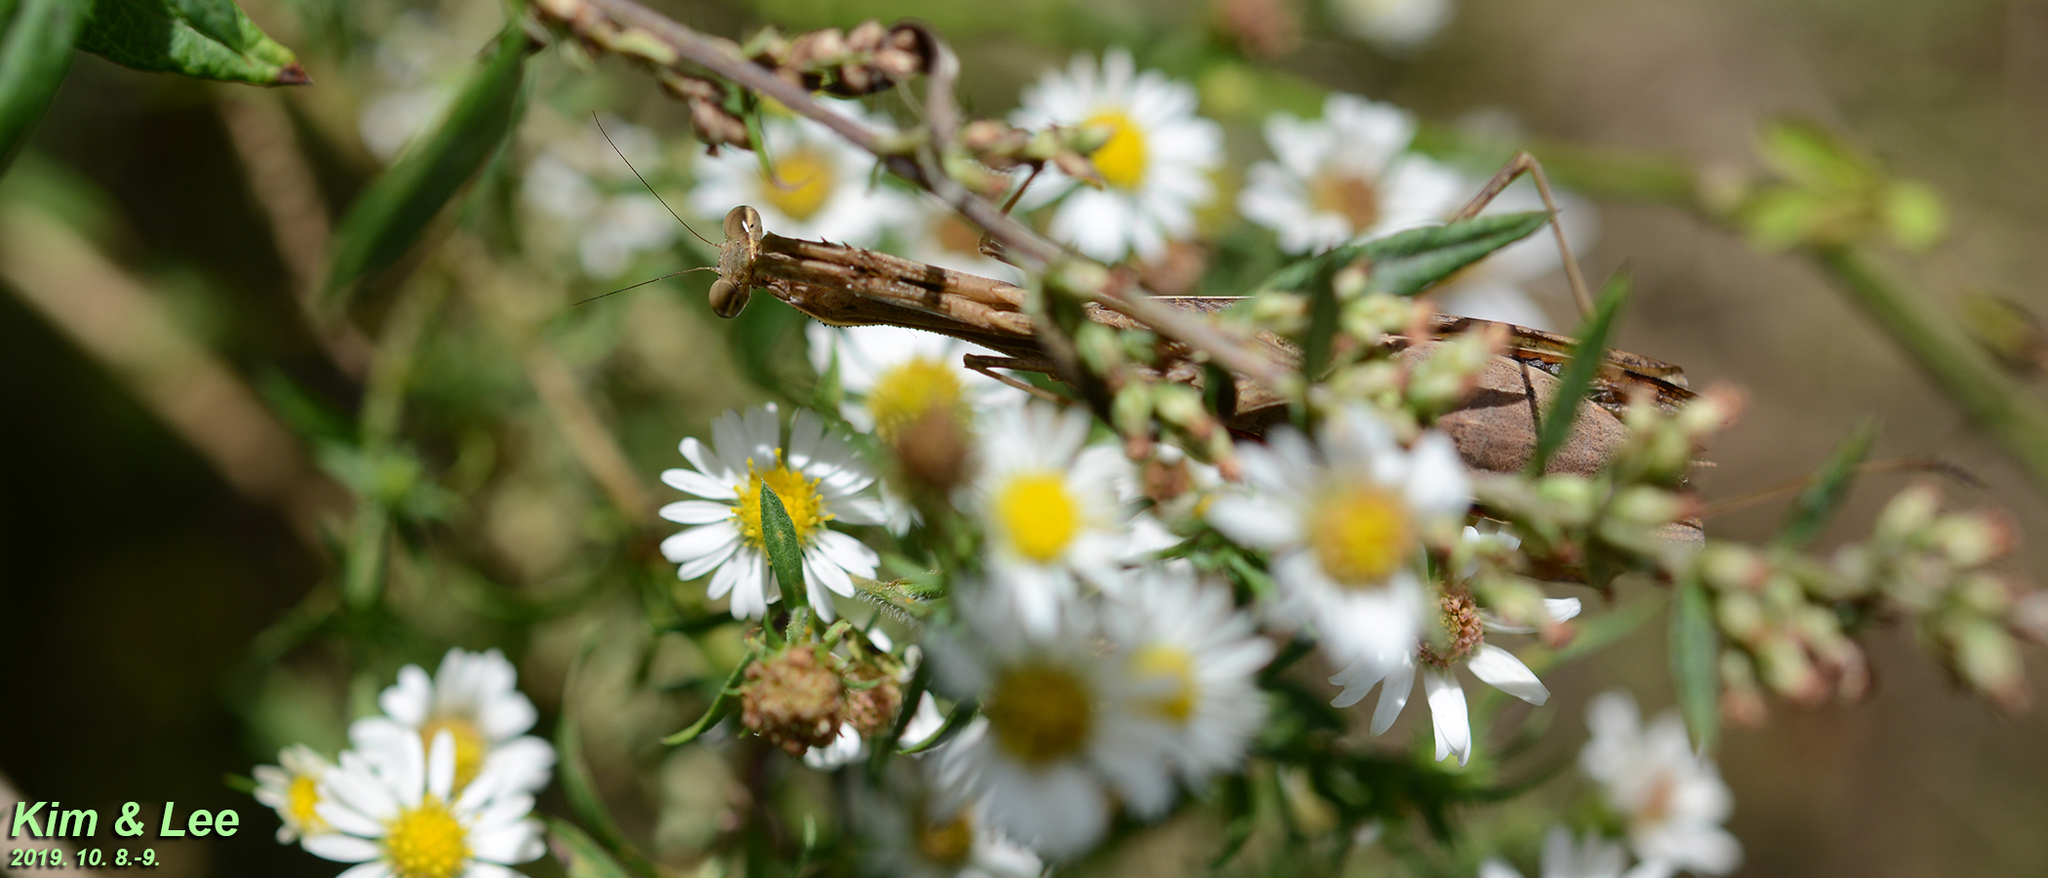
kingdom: Animalia
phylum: Arthropoda
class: Insecta
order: Mantodea
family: Mantidae
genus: Statilia
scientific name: Statilia maculata
